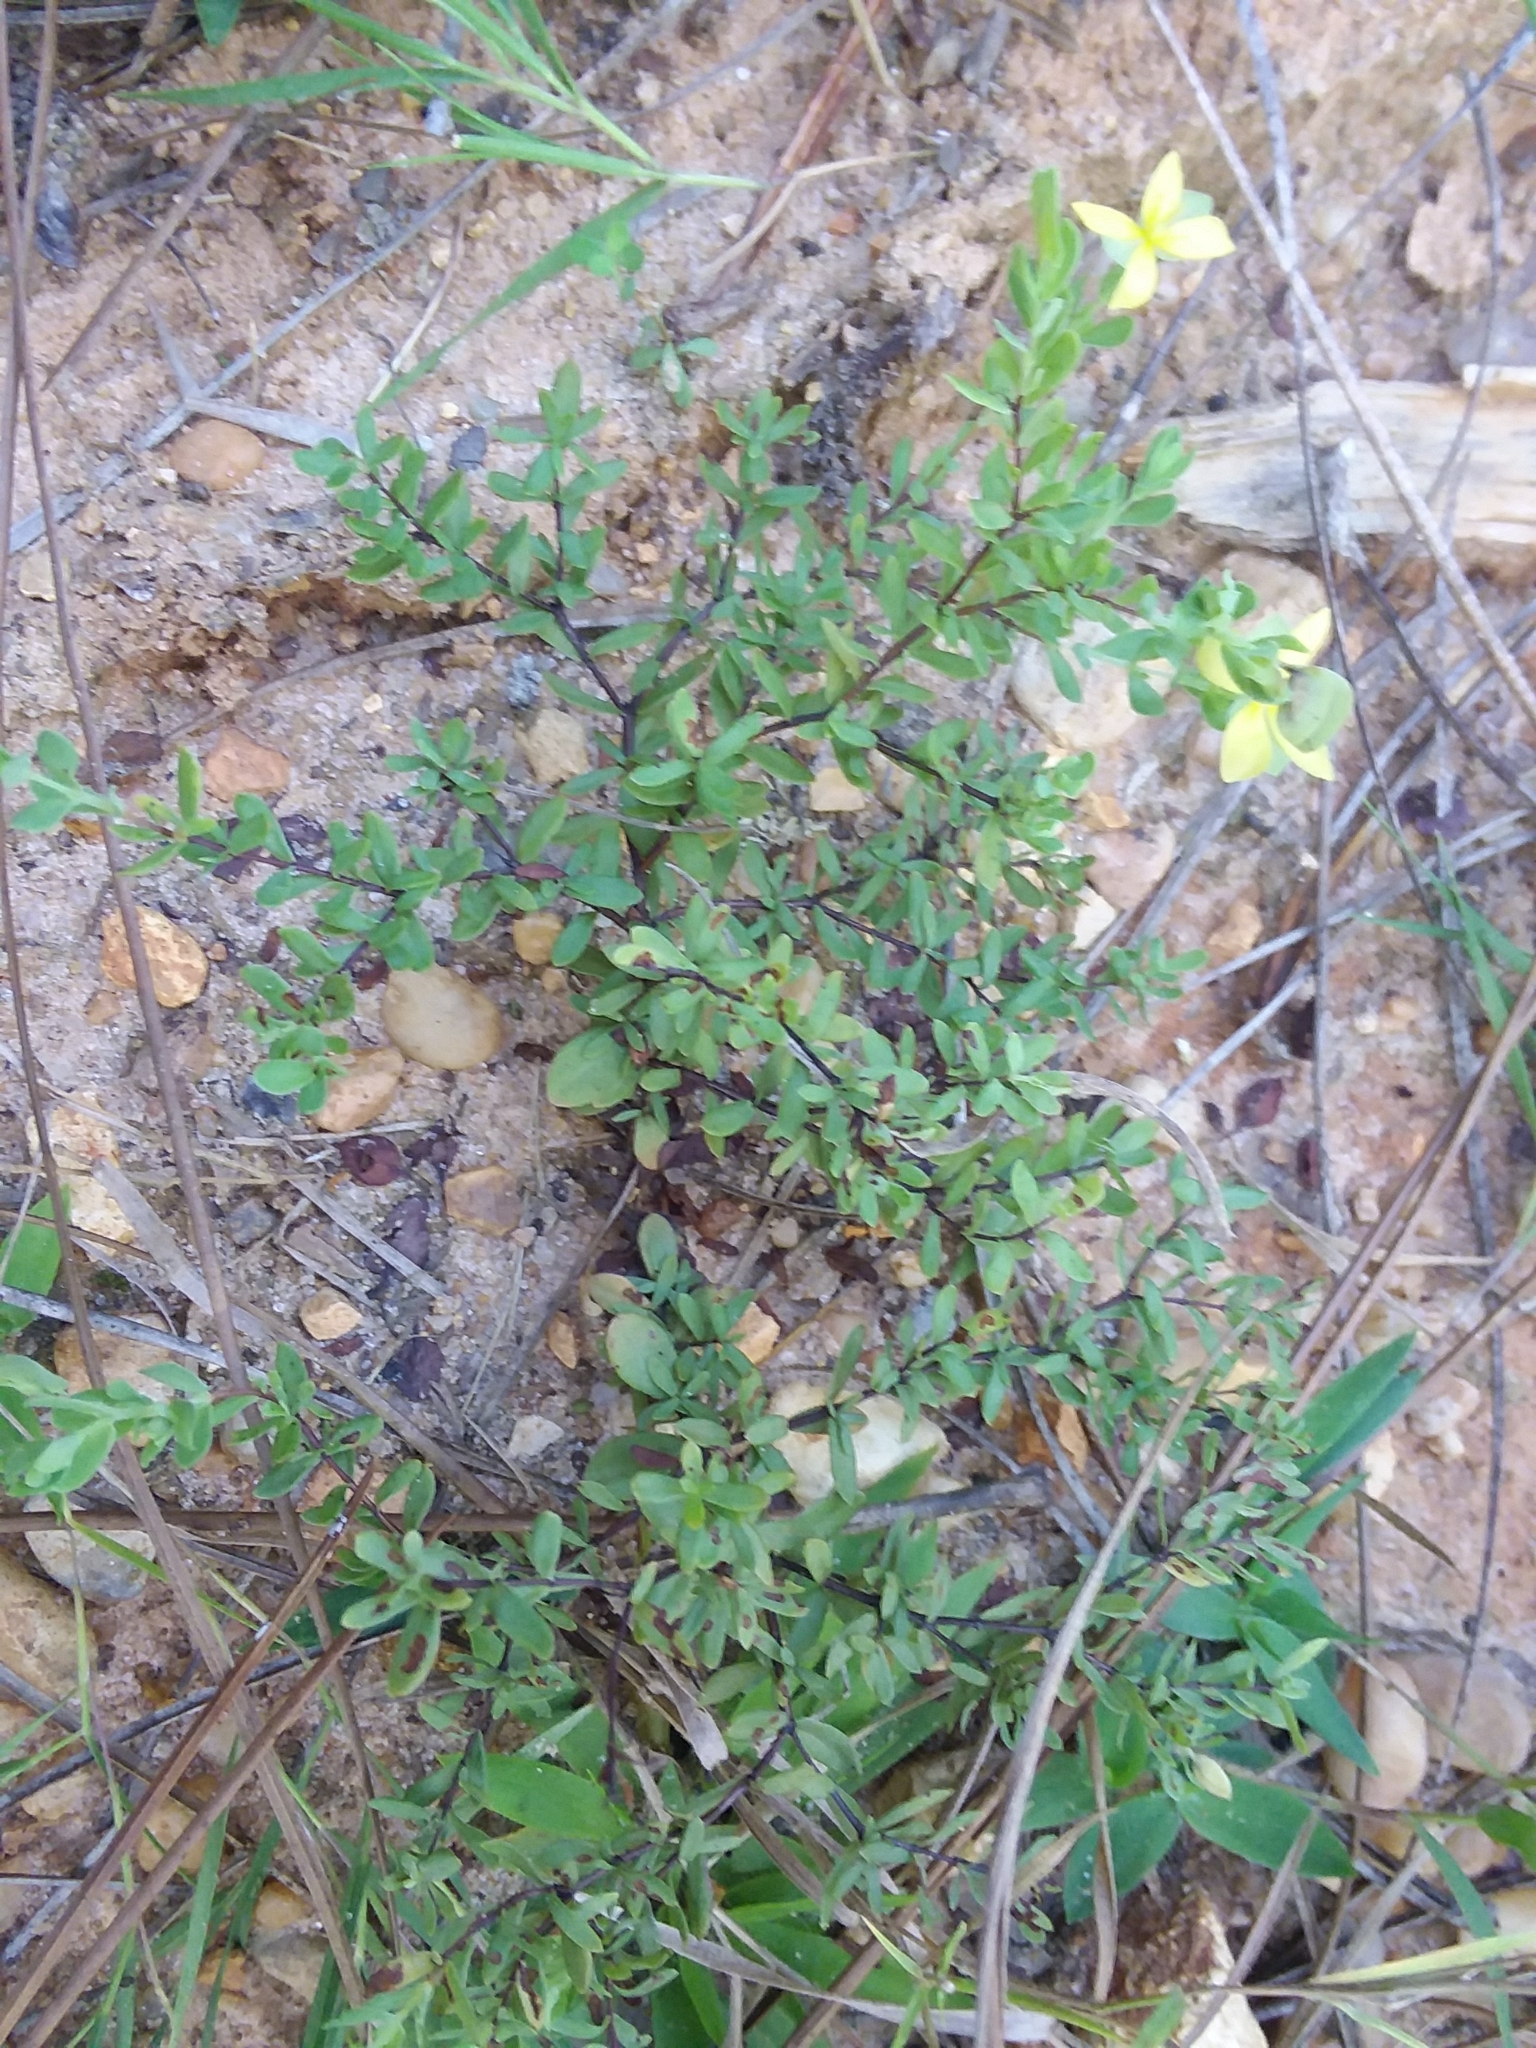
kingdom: Plantae
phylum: Tracheophyta
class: Magnoliopsida
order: Malpighiales
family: Hypericaceae
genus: Hypericum
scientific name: Hypericum suffruticosum
